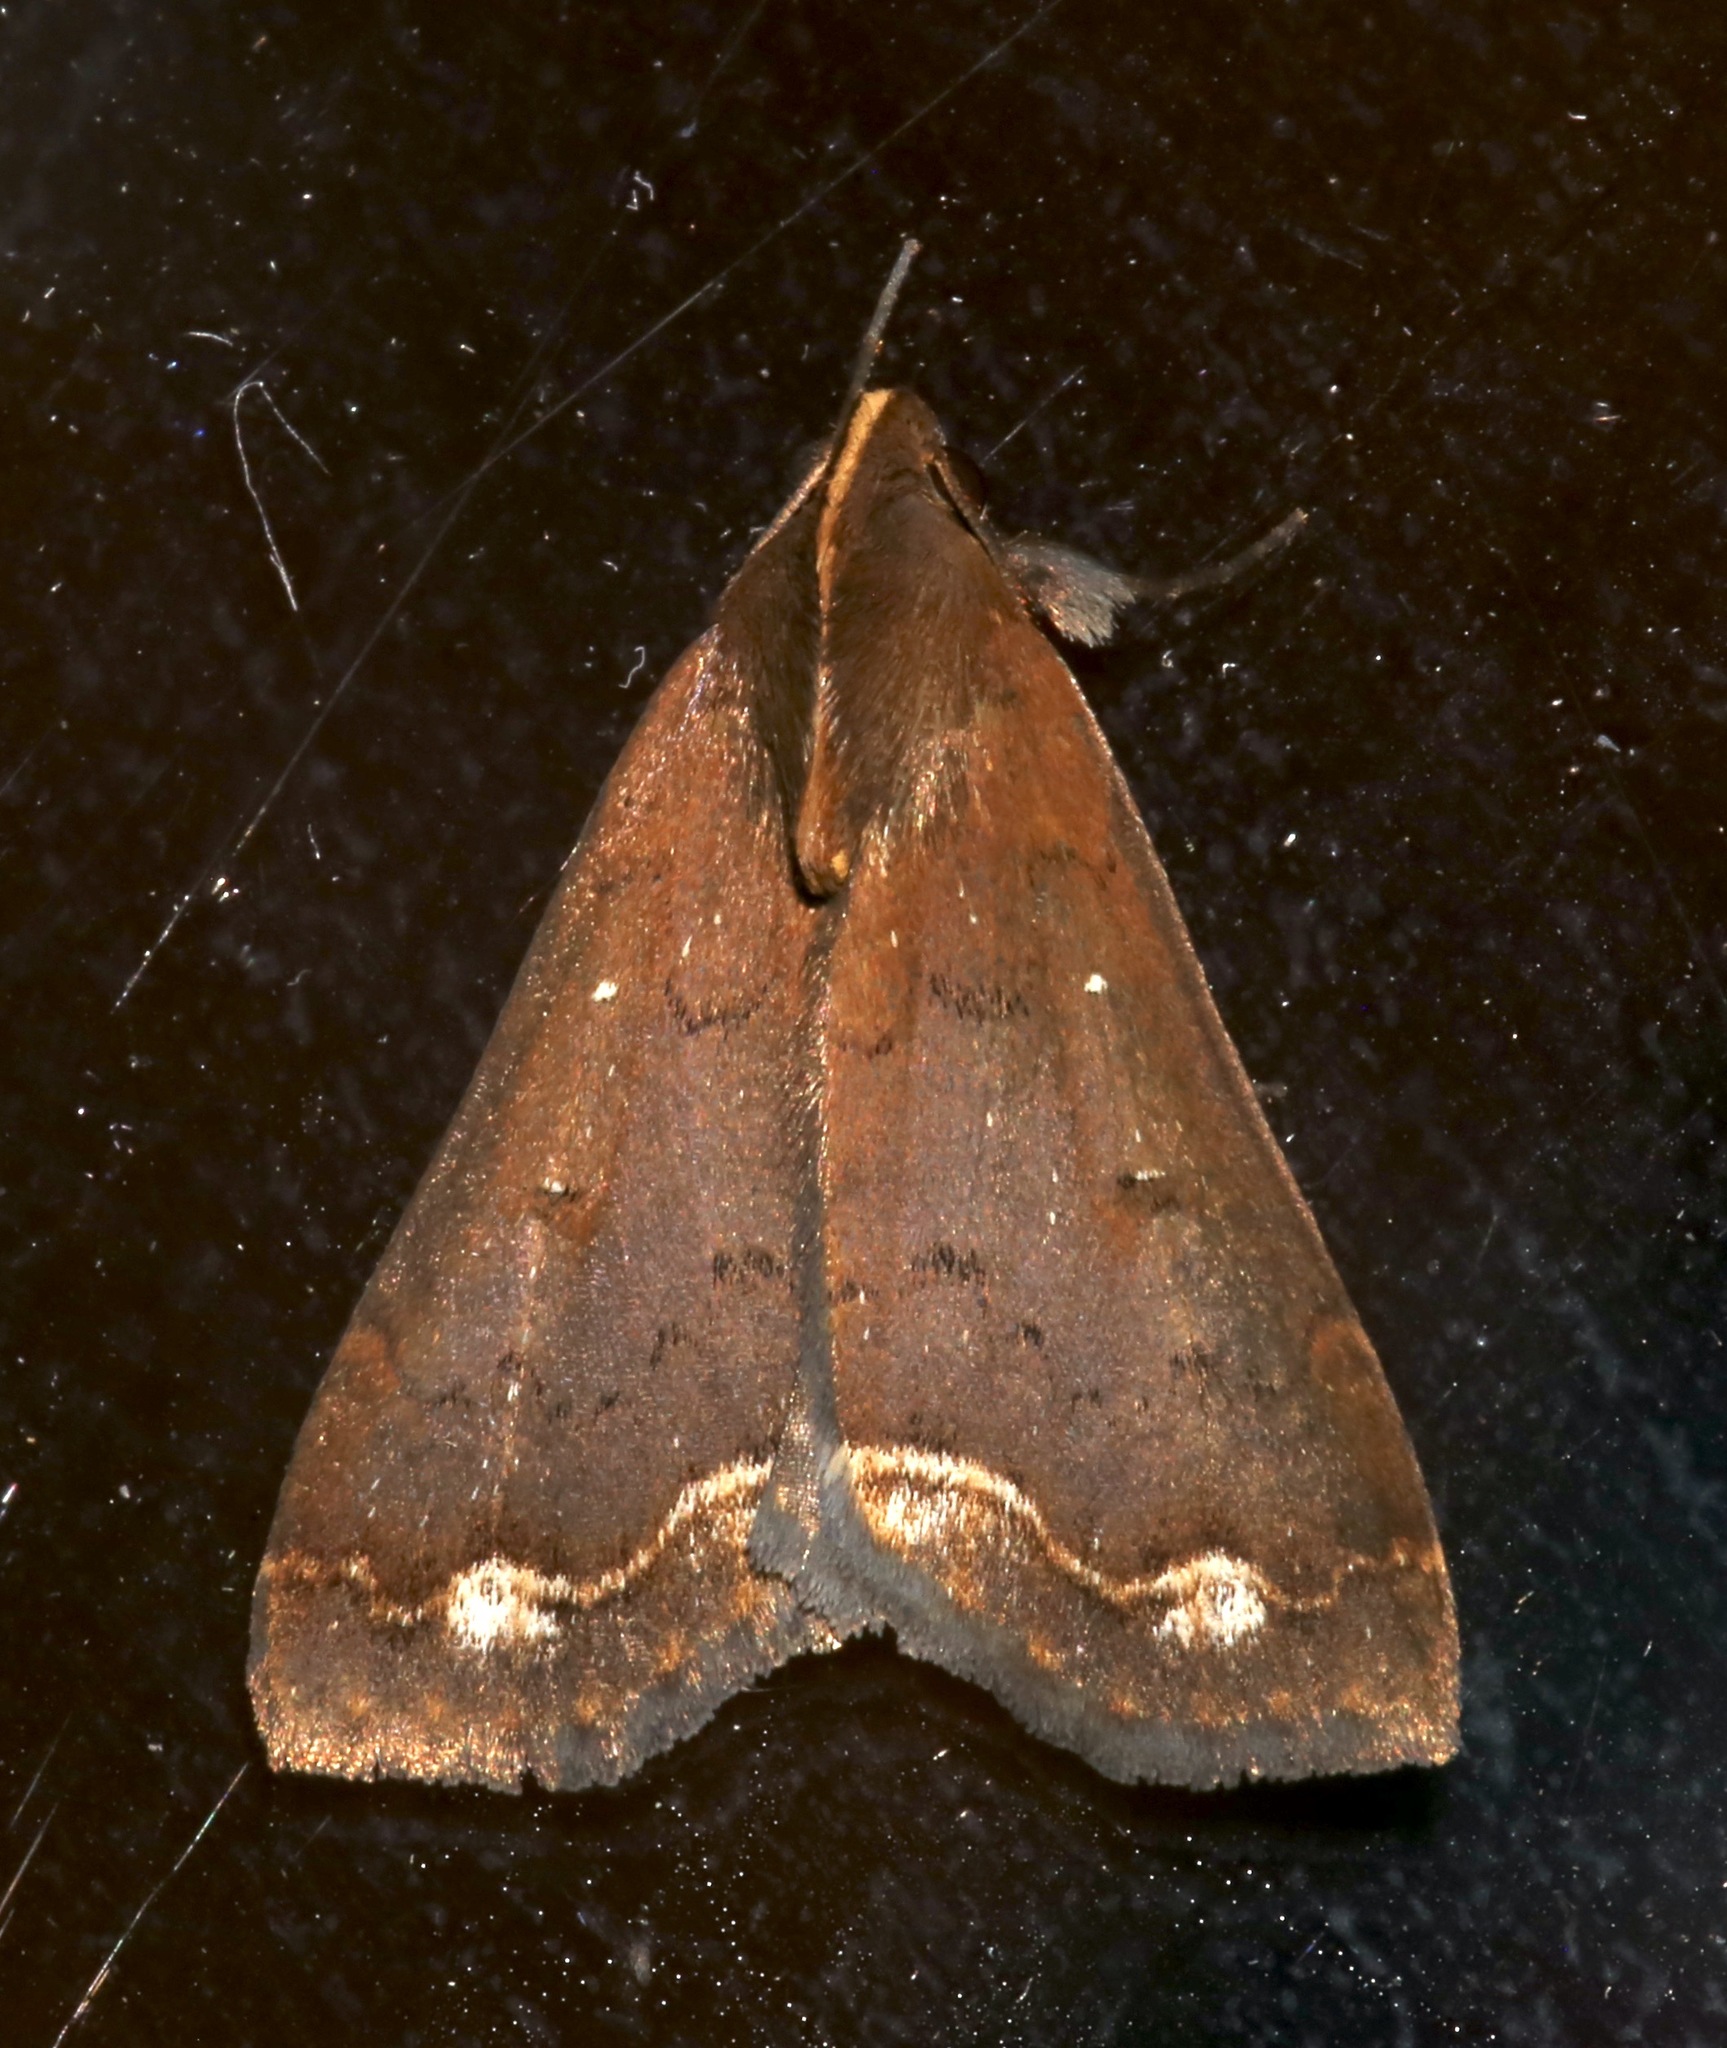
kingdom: Animalia
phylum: Arthropoda
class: Insecta
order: Lepidoptera
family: Erebidae
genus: Rejectaria
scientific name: Rejectaria cocytalis
